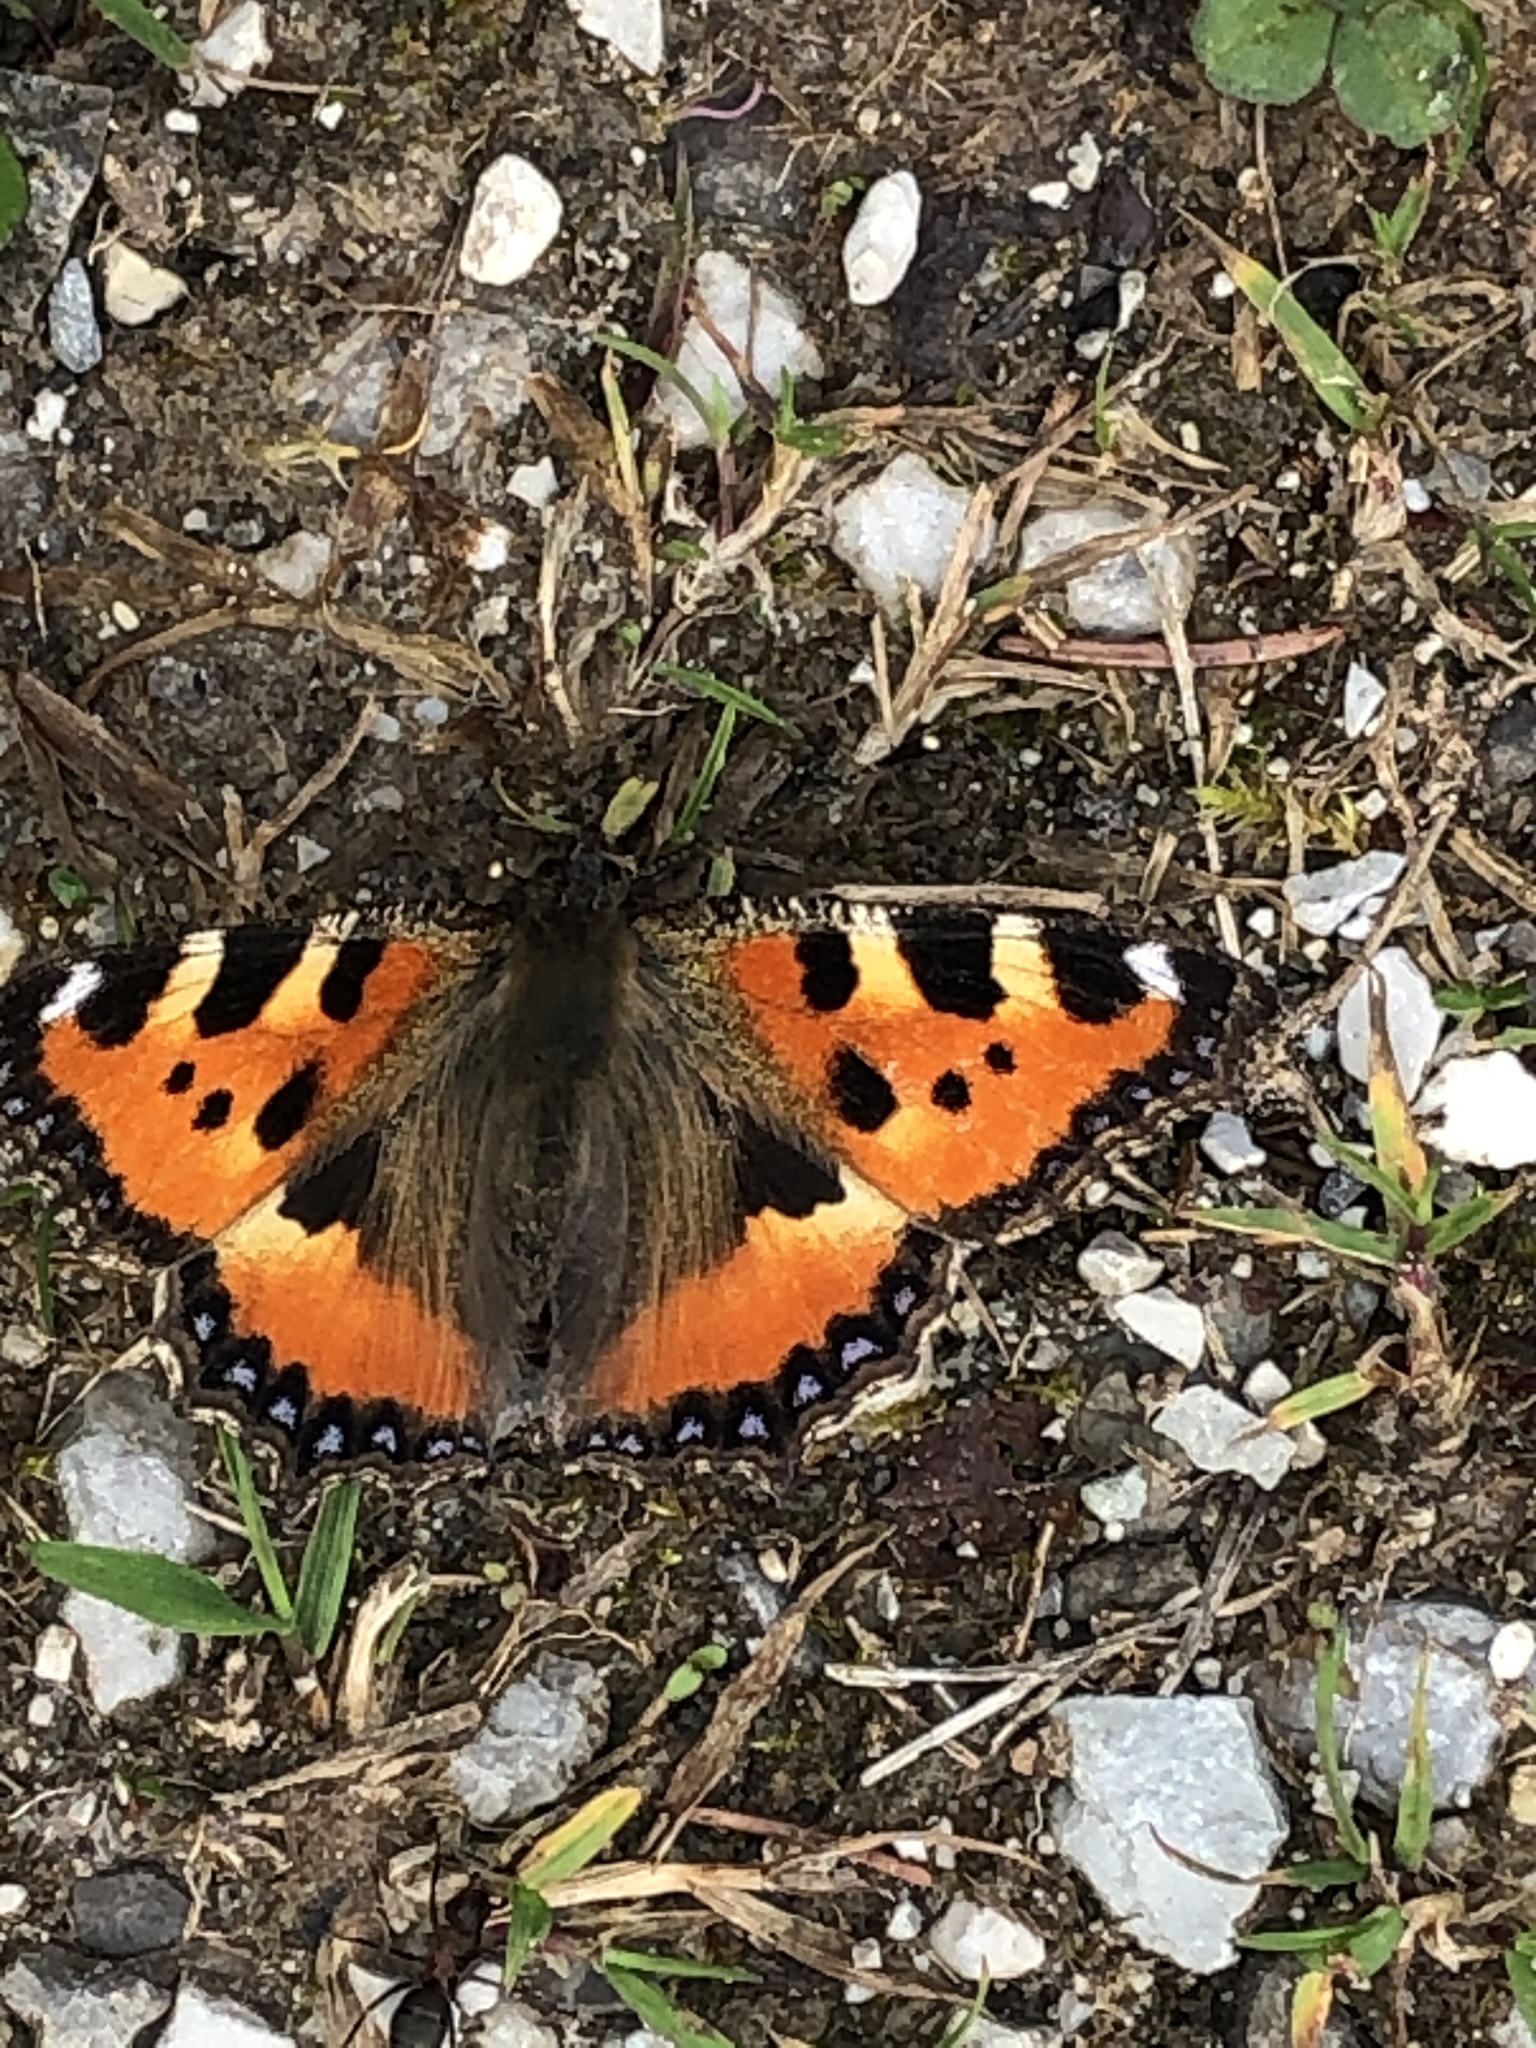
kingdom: Animalia
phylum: Arthropoda
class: Insecta
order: Lepidoptera
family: Nymphalidae
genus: Aglais
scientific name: Aglais urticae
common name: Small tortoiseshell
